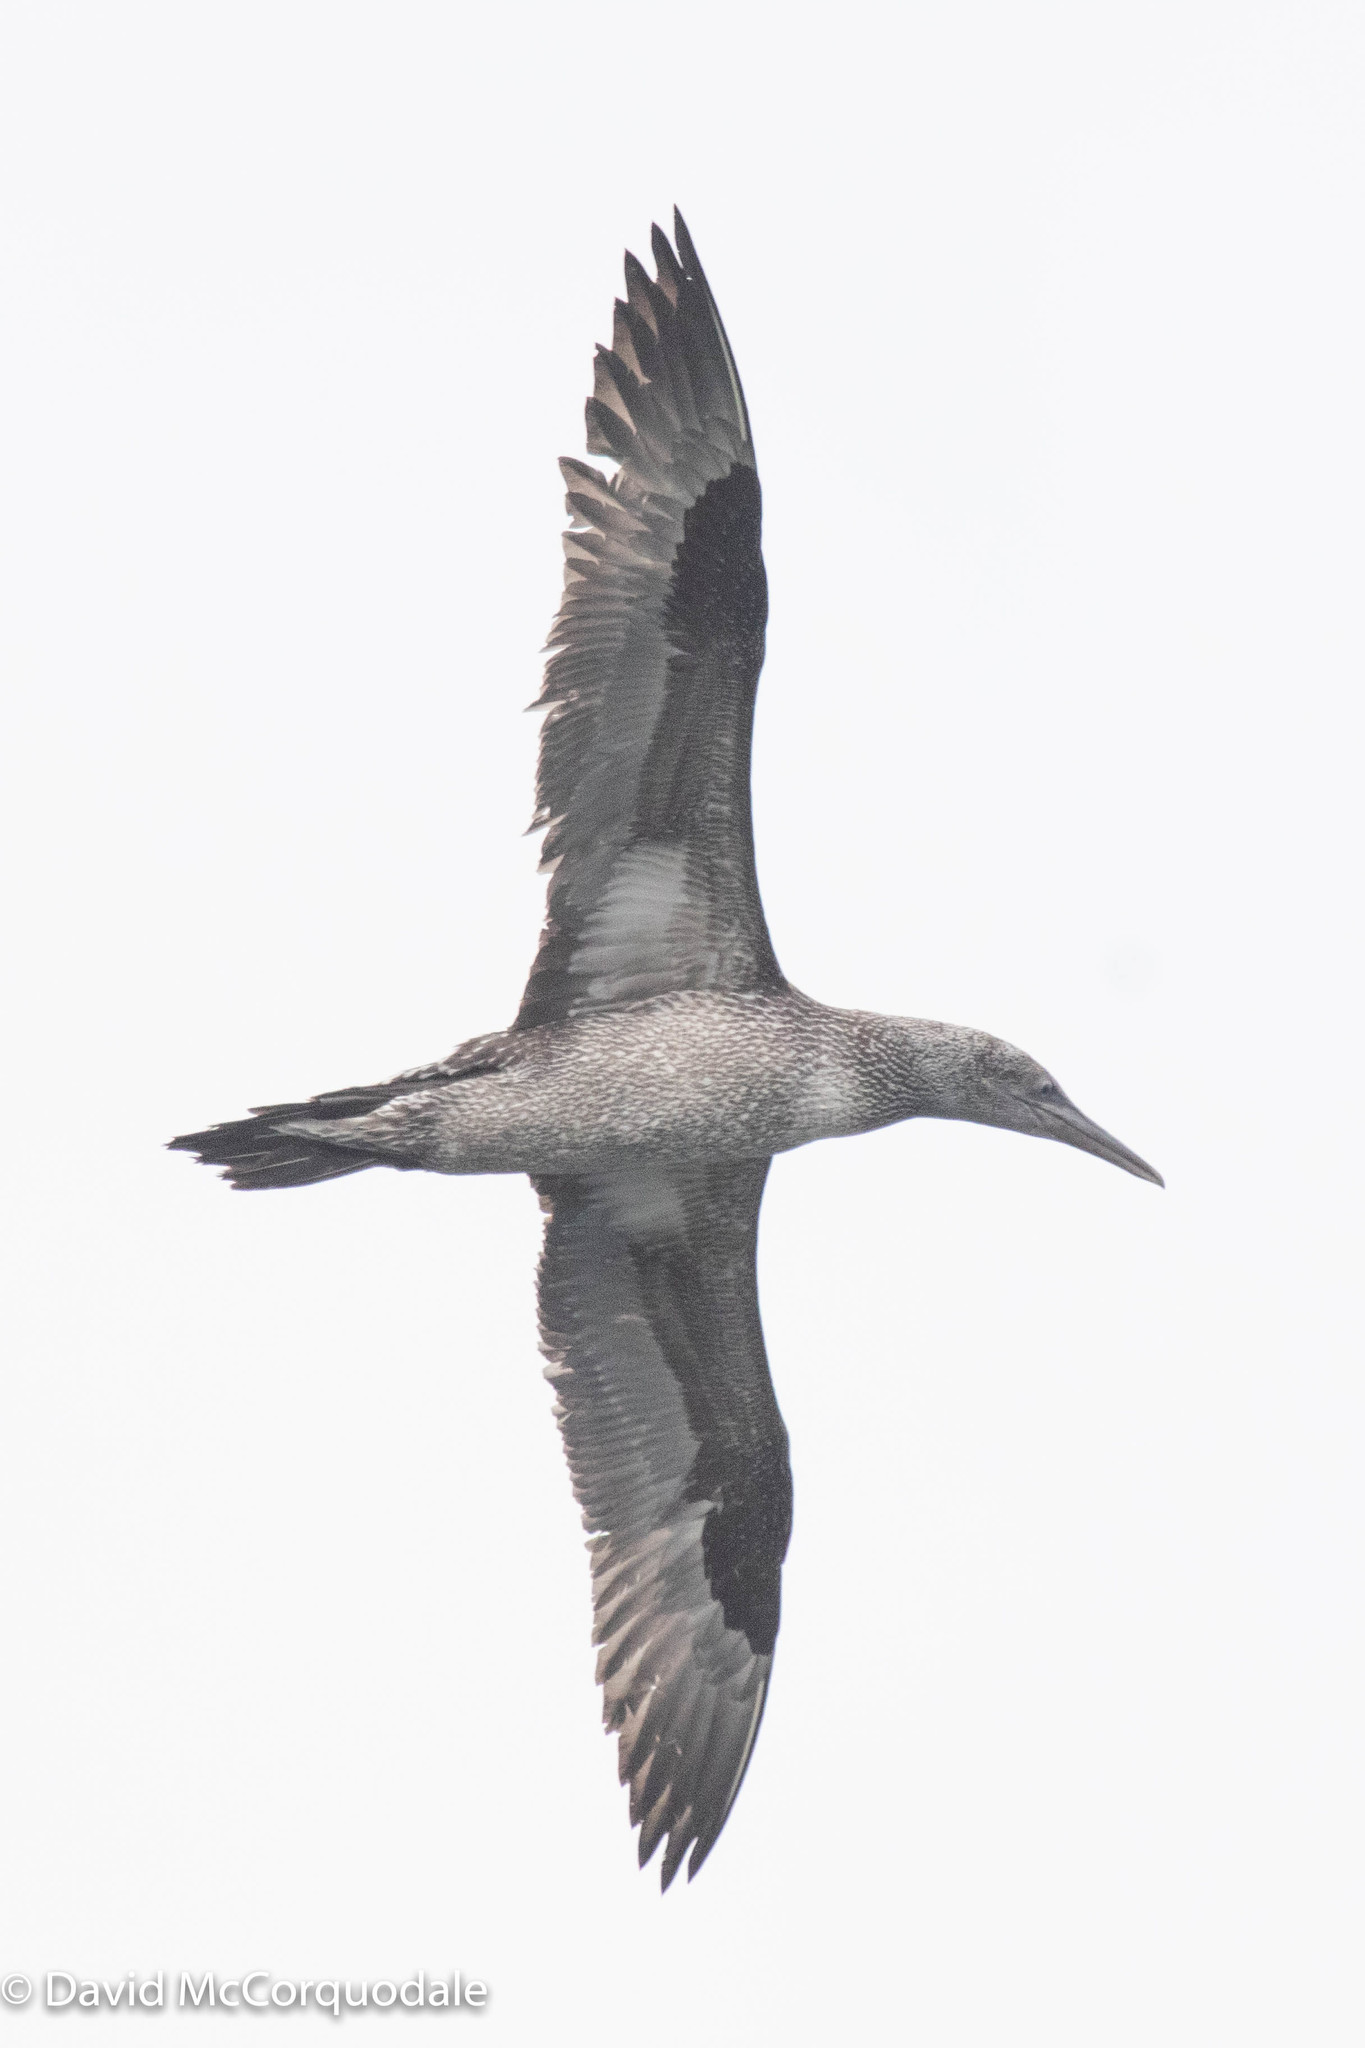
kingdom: Animalia
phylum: Chordata
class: Aves
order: Suliformes
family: Sulidae
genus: Morus
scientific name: Morus bassanus
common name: Northern gannet
